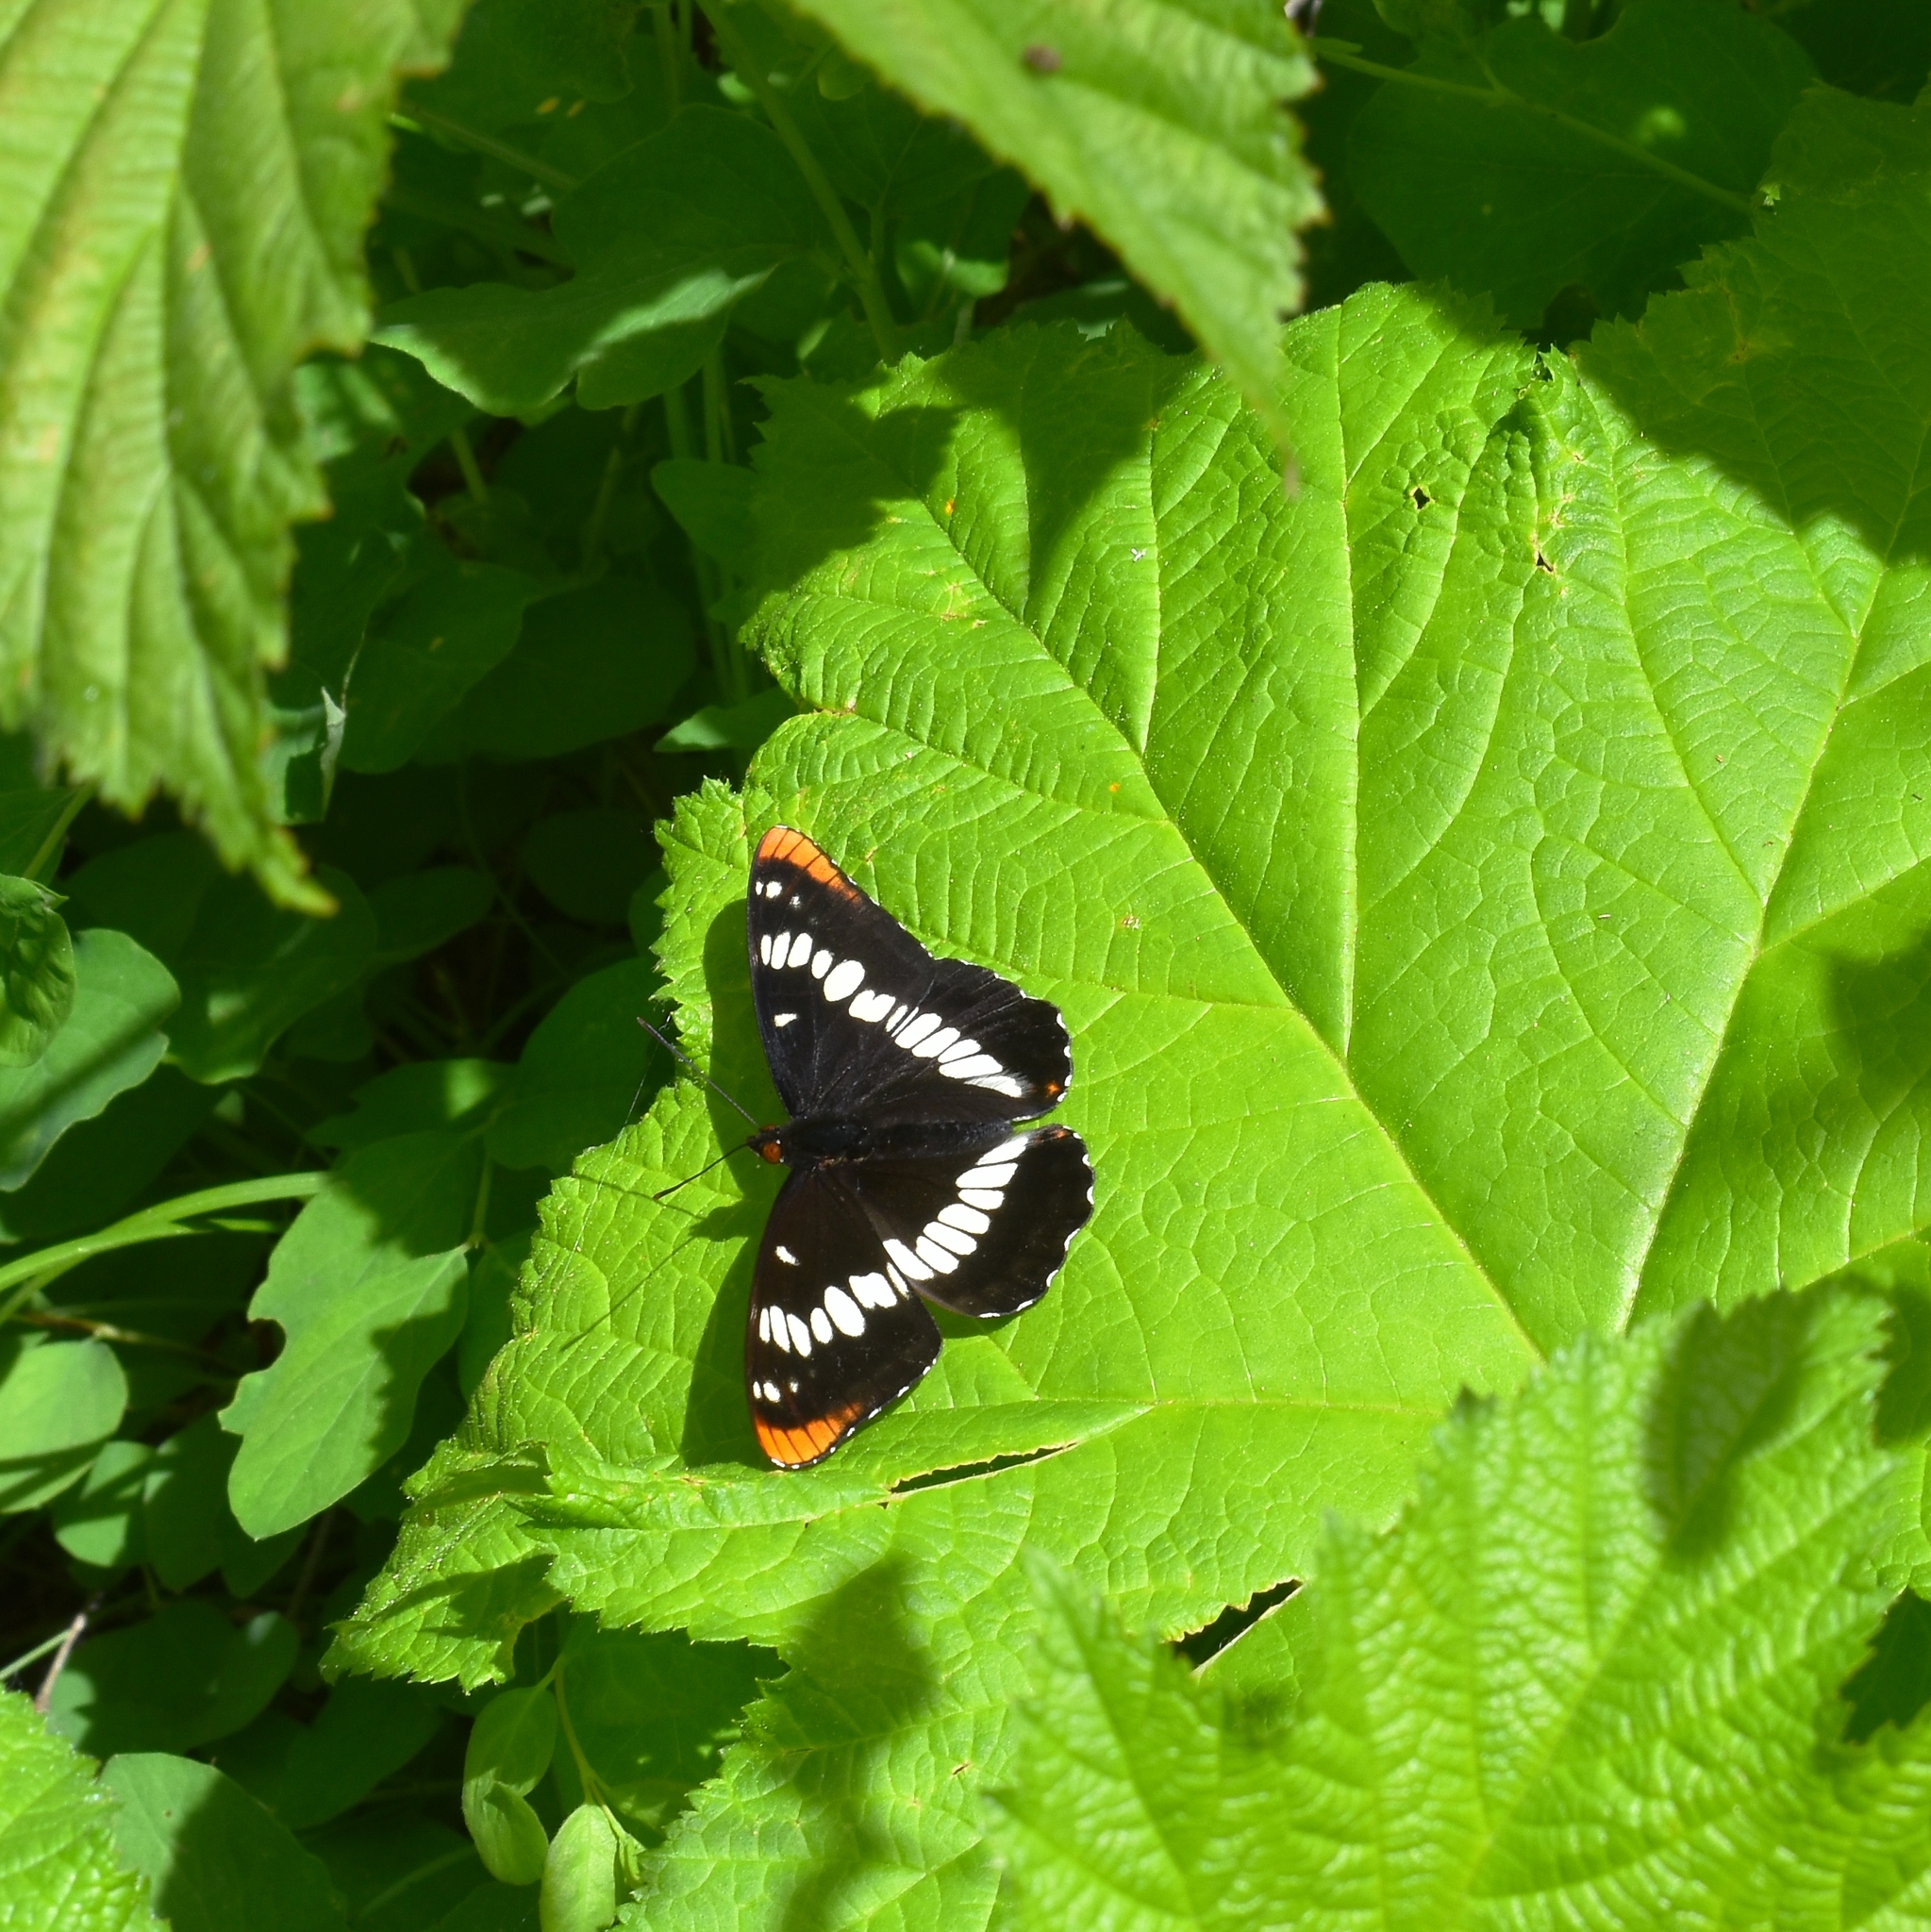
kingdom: Animalia
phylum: Arthropoda
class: Insecta
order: Lepidoptera
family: Nymphalidae
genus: Limenitis
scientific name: Limenitis lorquini
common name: Lorquin's admiral
